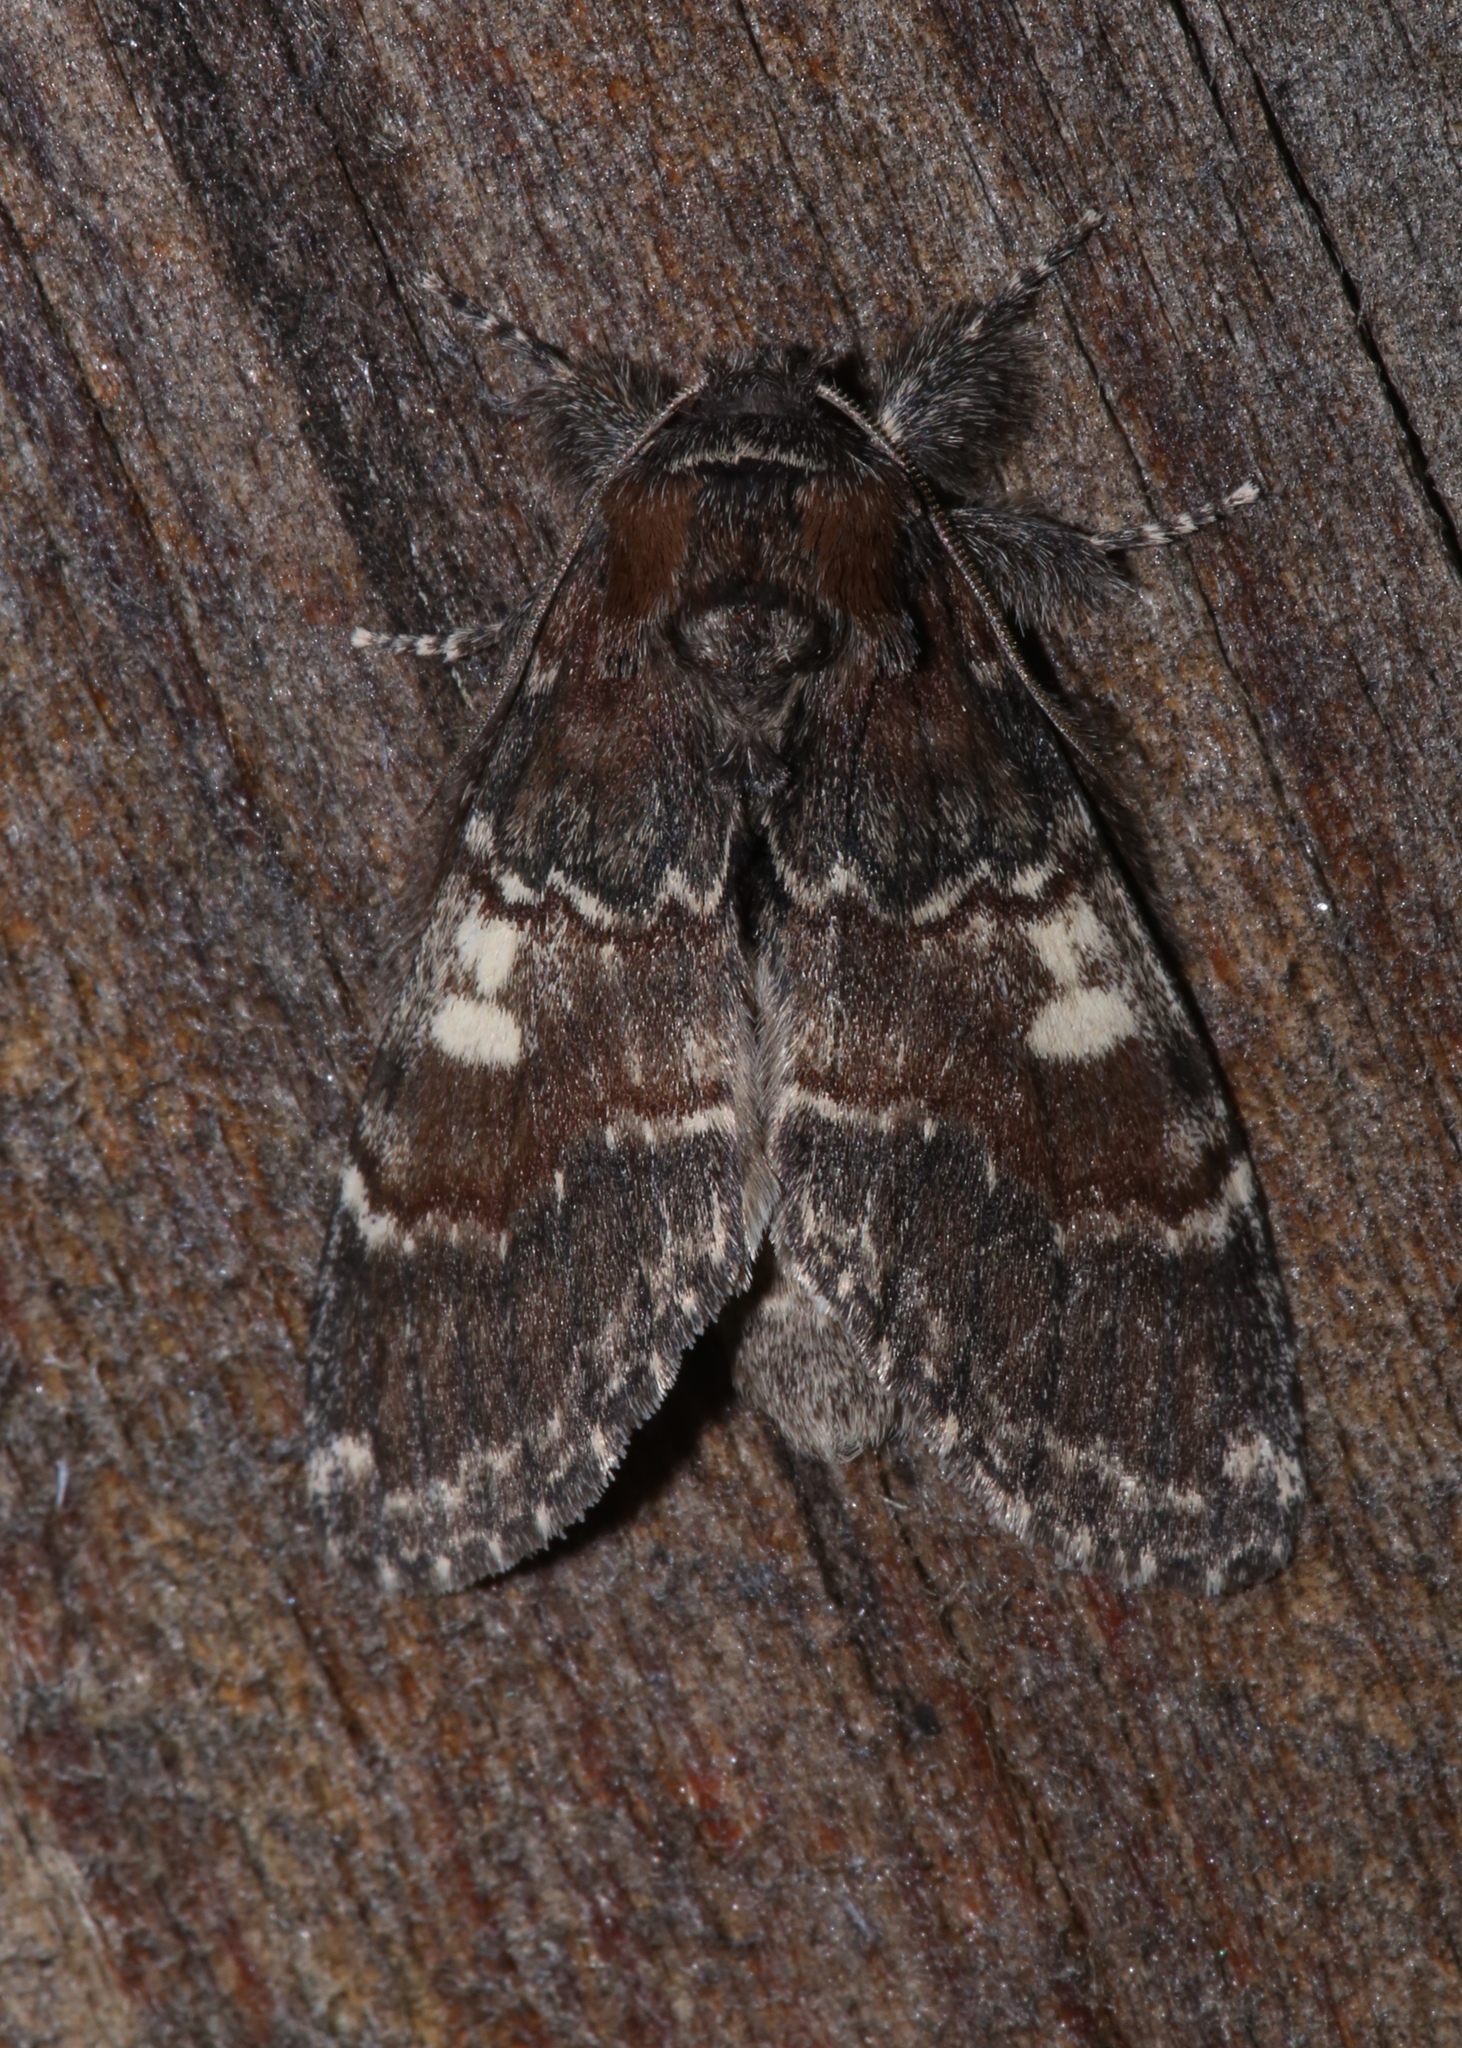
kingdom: Animalia
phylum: Arthropoda
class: Insecta
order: Lepidoptera
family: Notodontidae
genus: Peridea
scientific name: Peridea ferruginea
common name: Chocolate prominent
